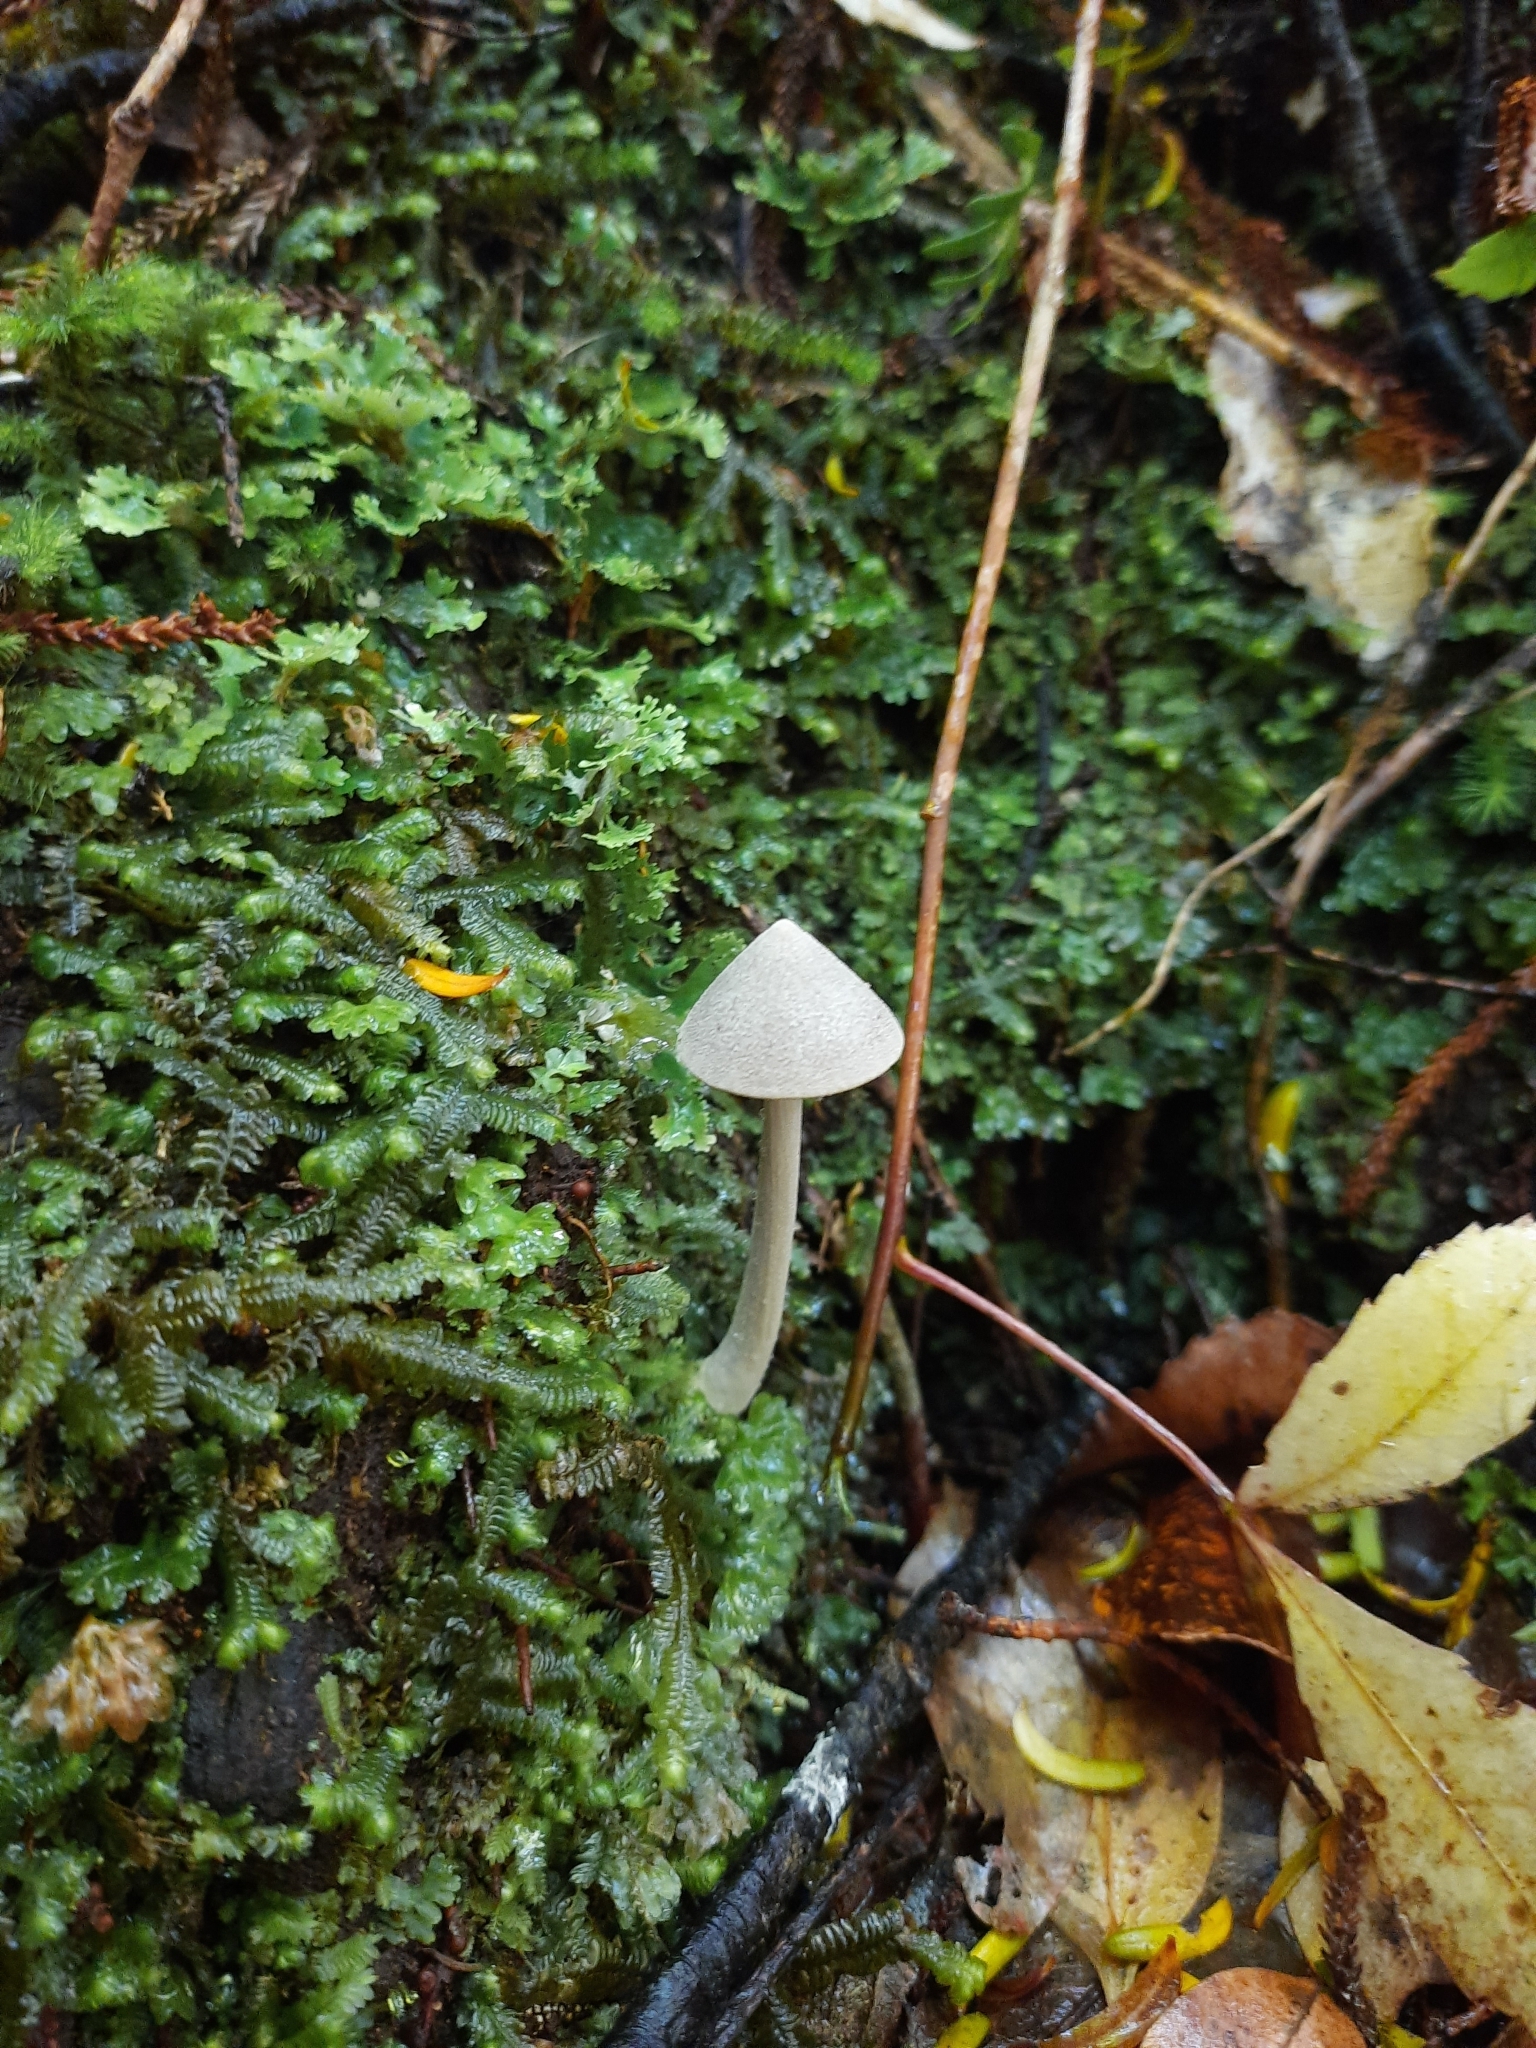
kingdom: Fungi
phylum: Basidiomycota
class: Agaricomycetes
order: Agaricales
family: Entolomataceae
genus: Entoloma
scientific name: Entoloma canoconicum
